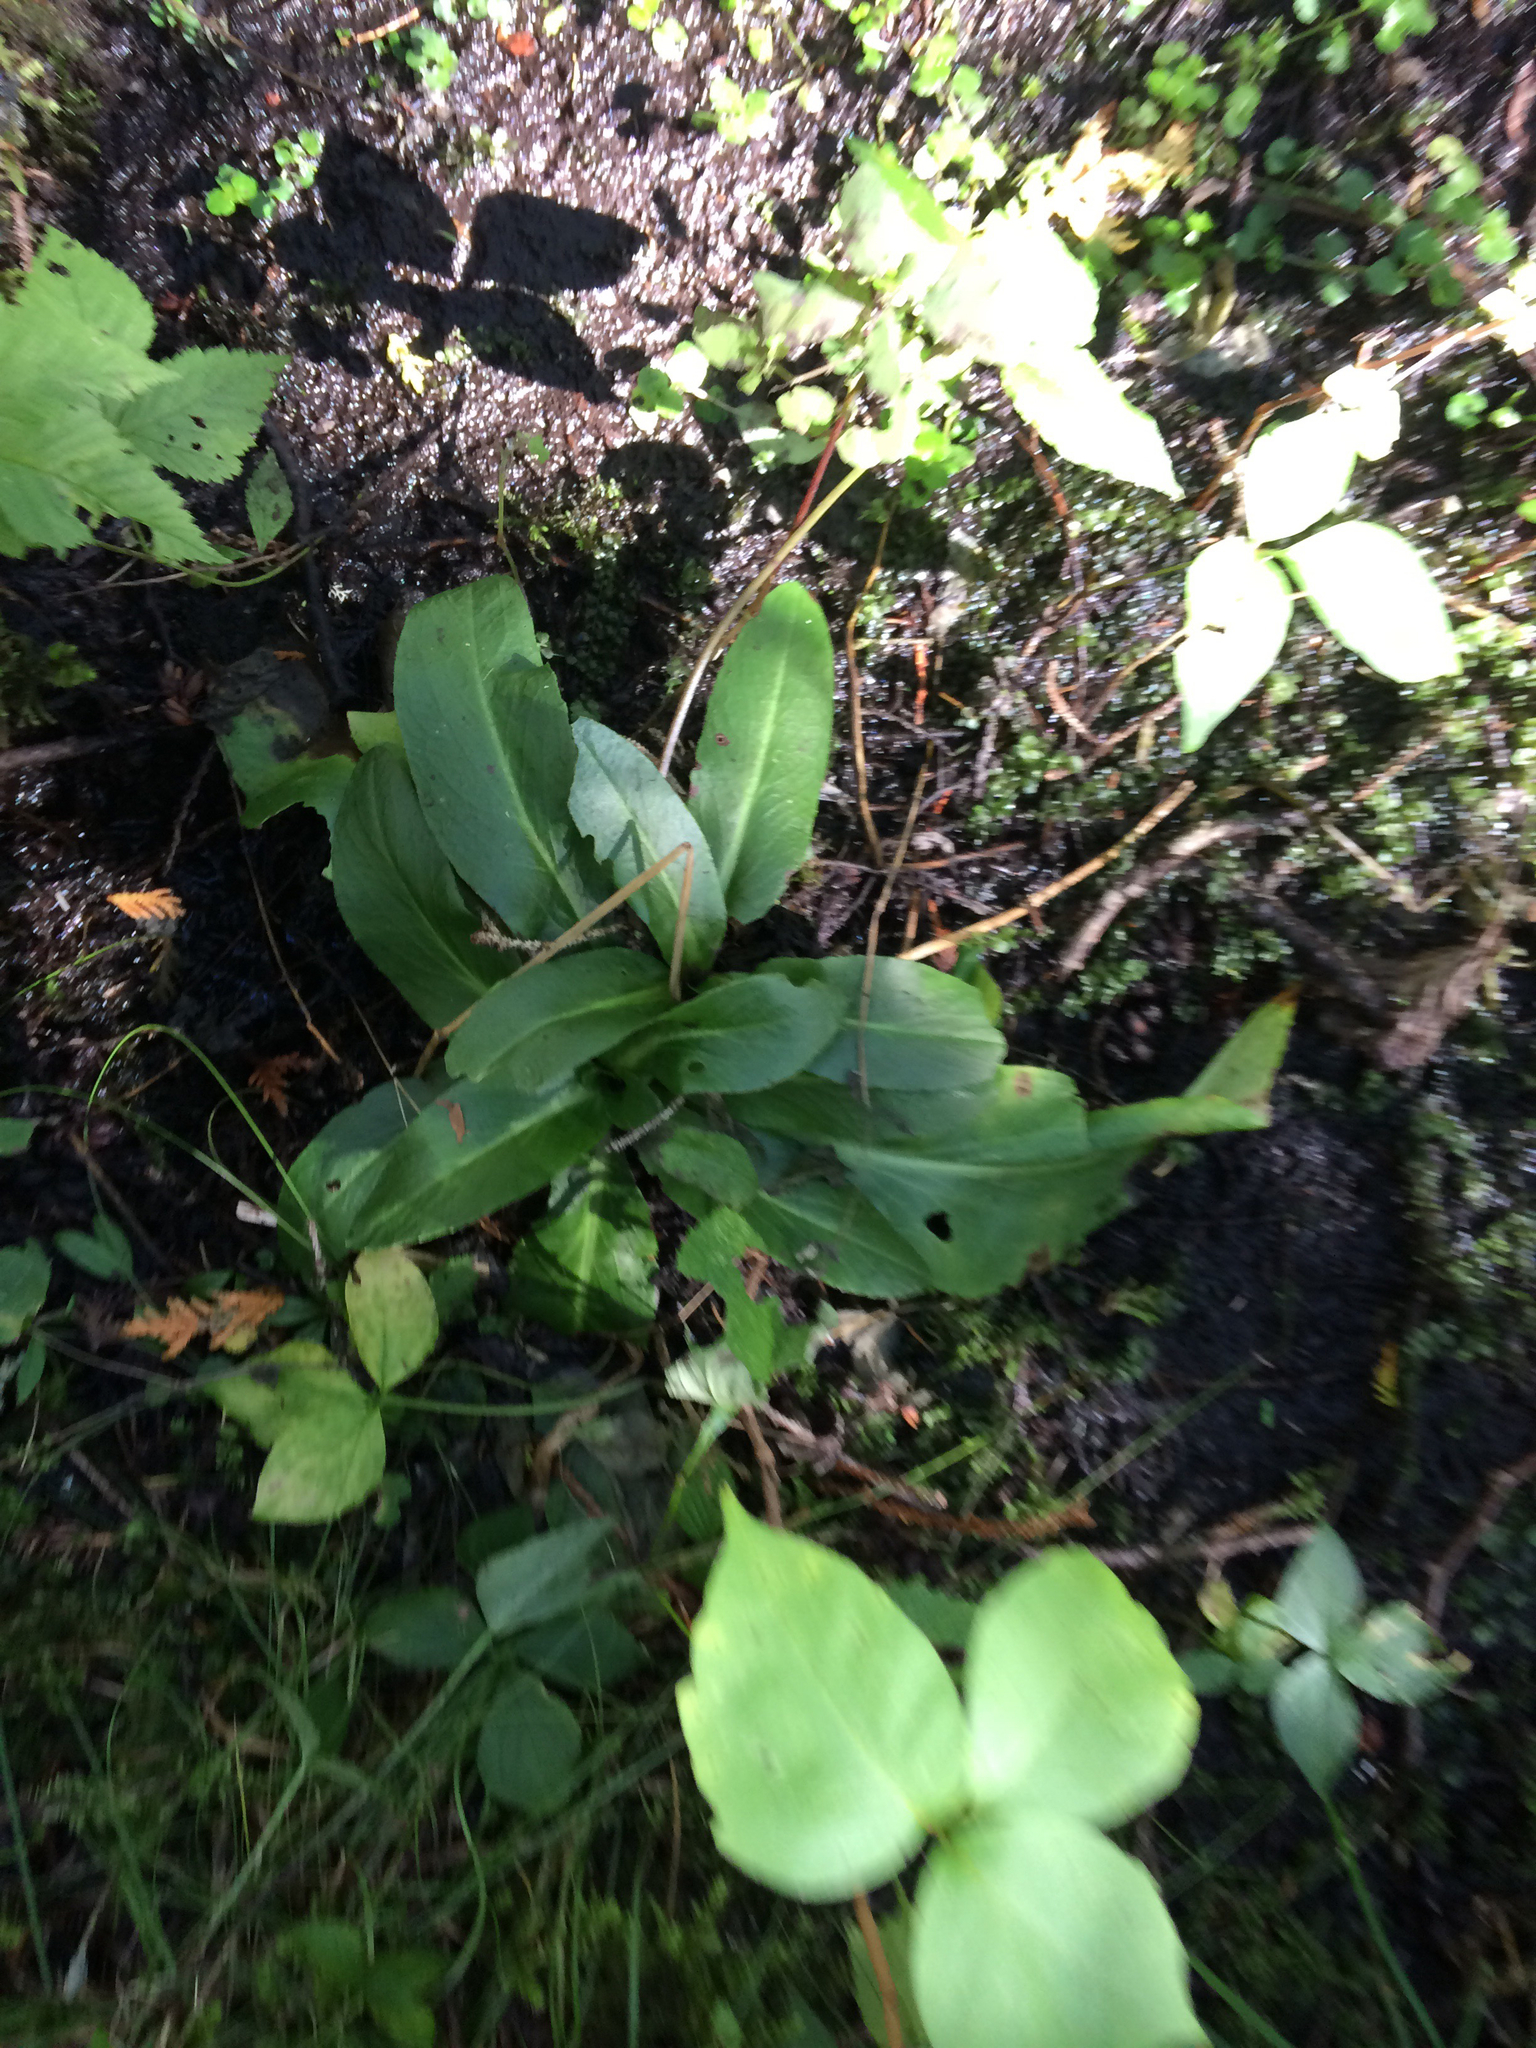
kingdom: Plantae
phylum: Tracheophyta
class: Magnoliopsida
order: Saxifragales
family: Saxifragaceae
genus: Micranthes
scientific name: Micranthes pensylvanica
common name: Marsh saxifrage
